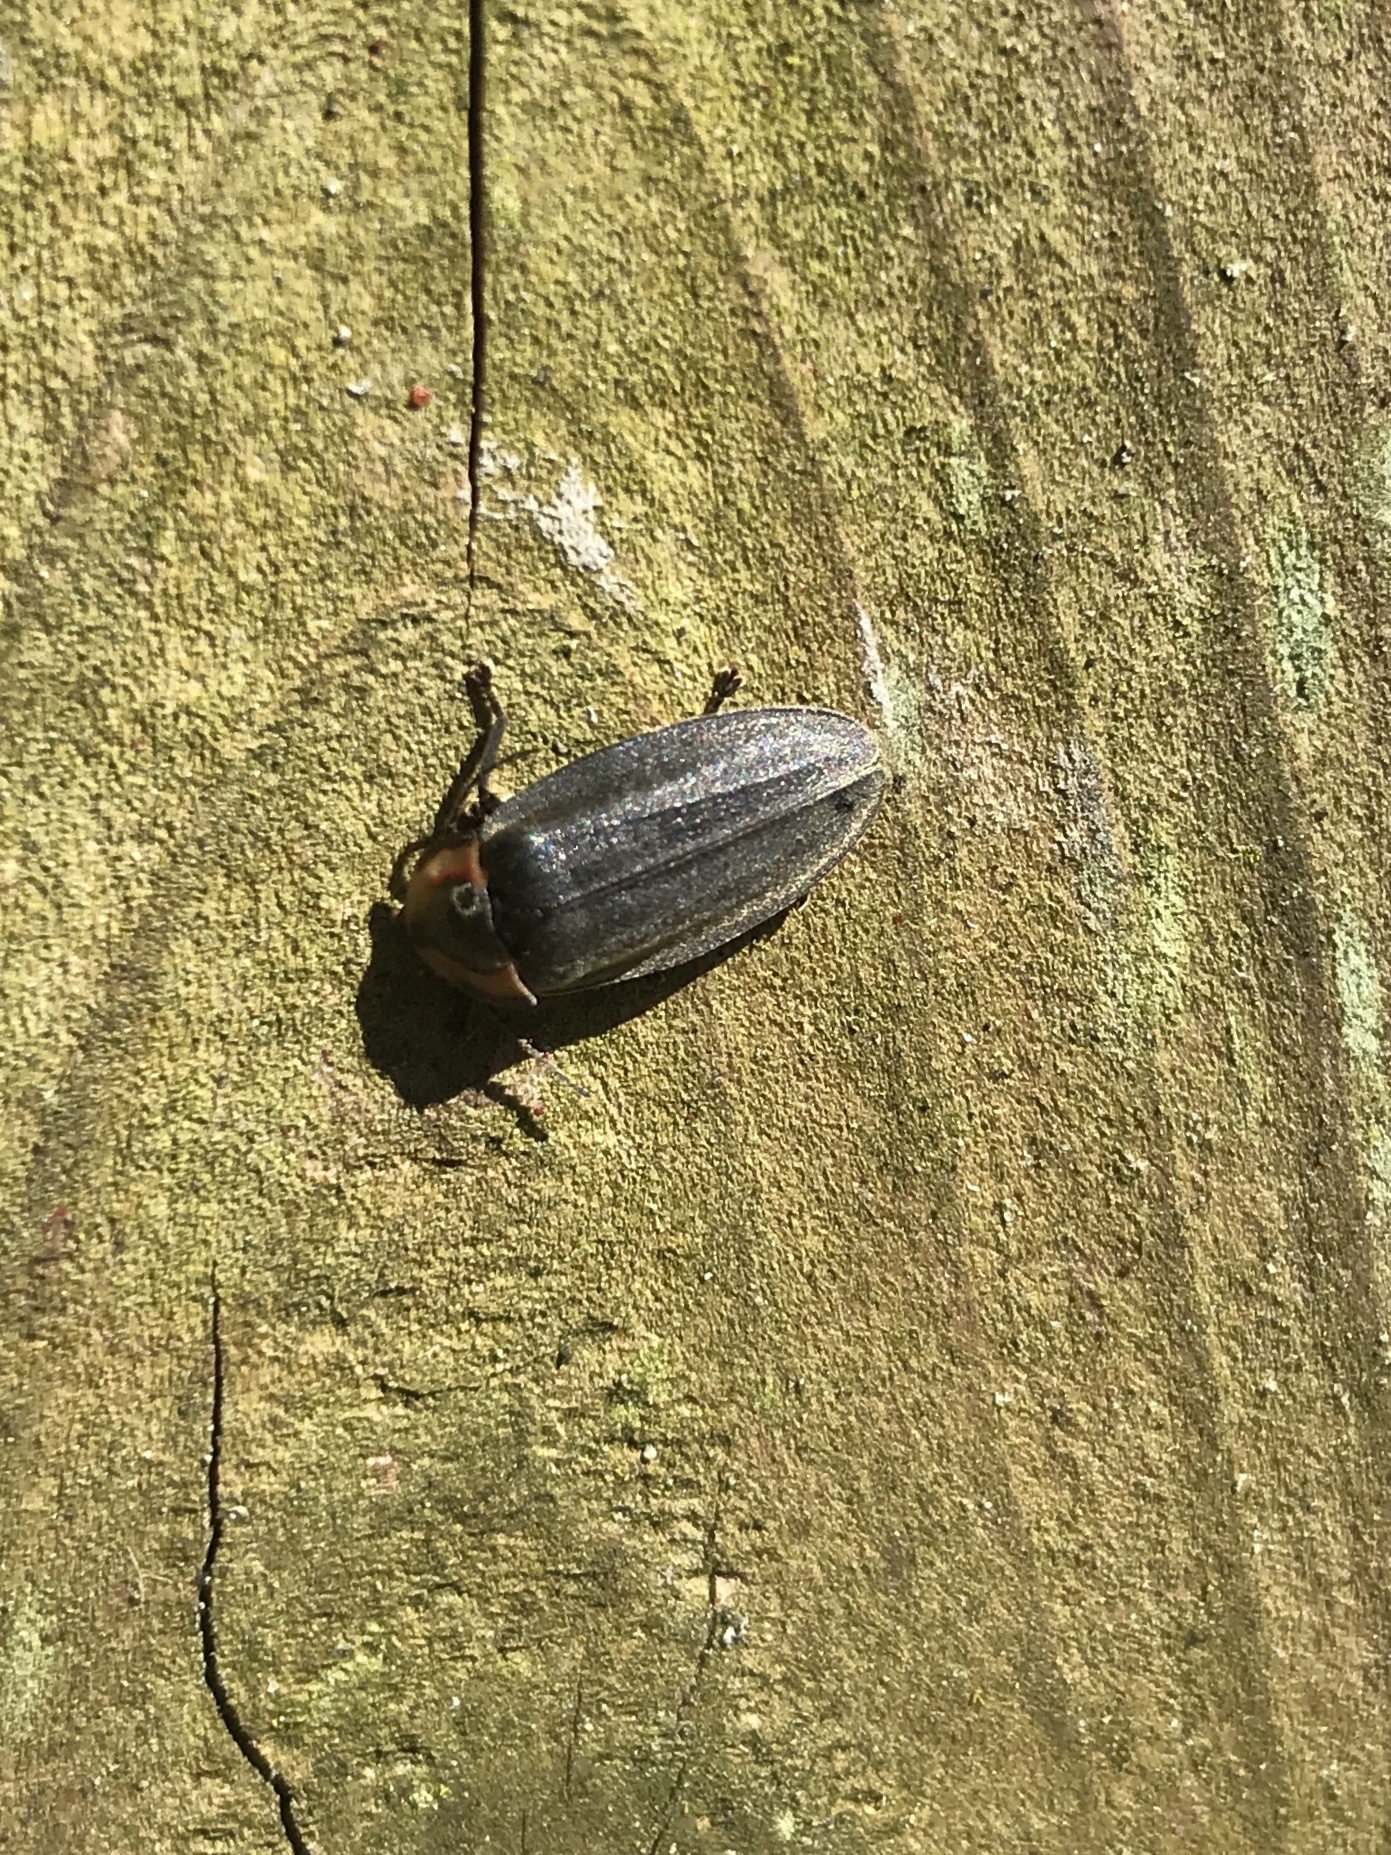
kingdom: Animalia
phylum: Arthropoda
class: Insecta
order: Coleoptera
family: Lampyridae
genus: Photinus
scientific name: Photinus corrusca
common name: Winter firefly
